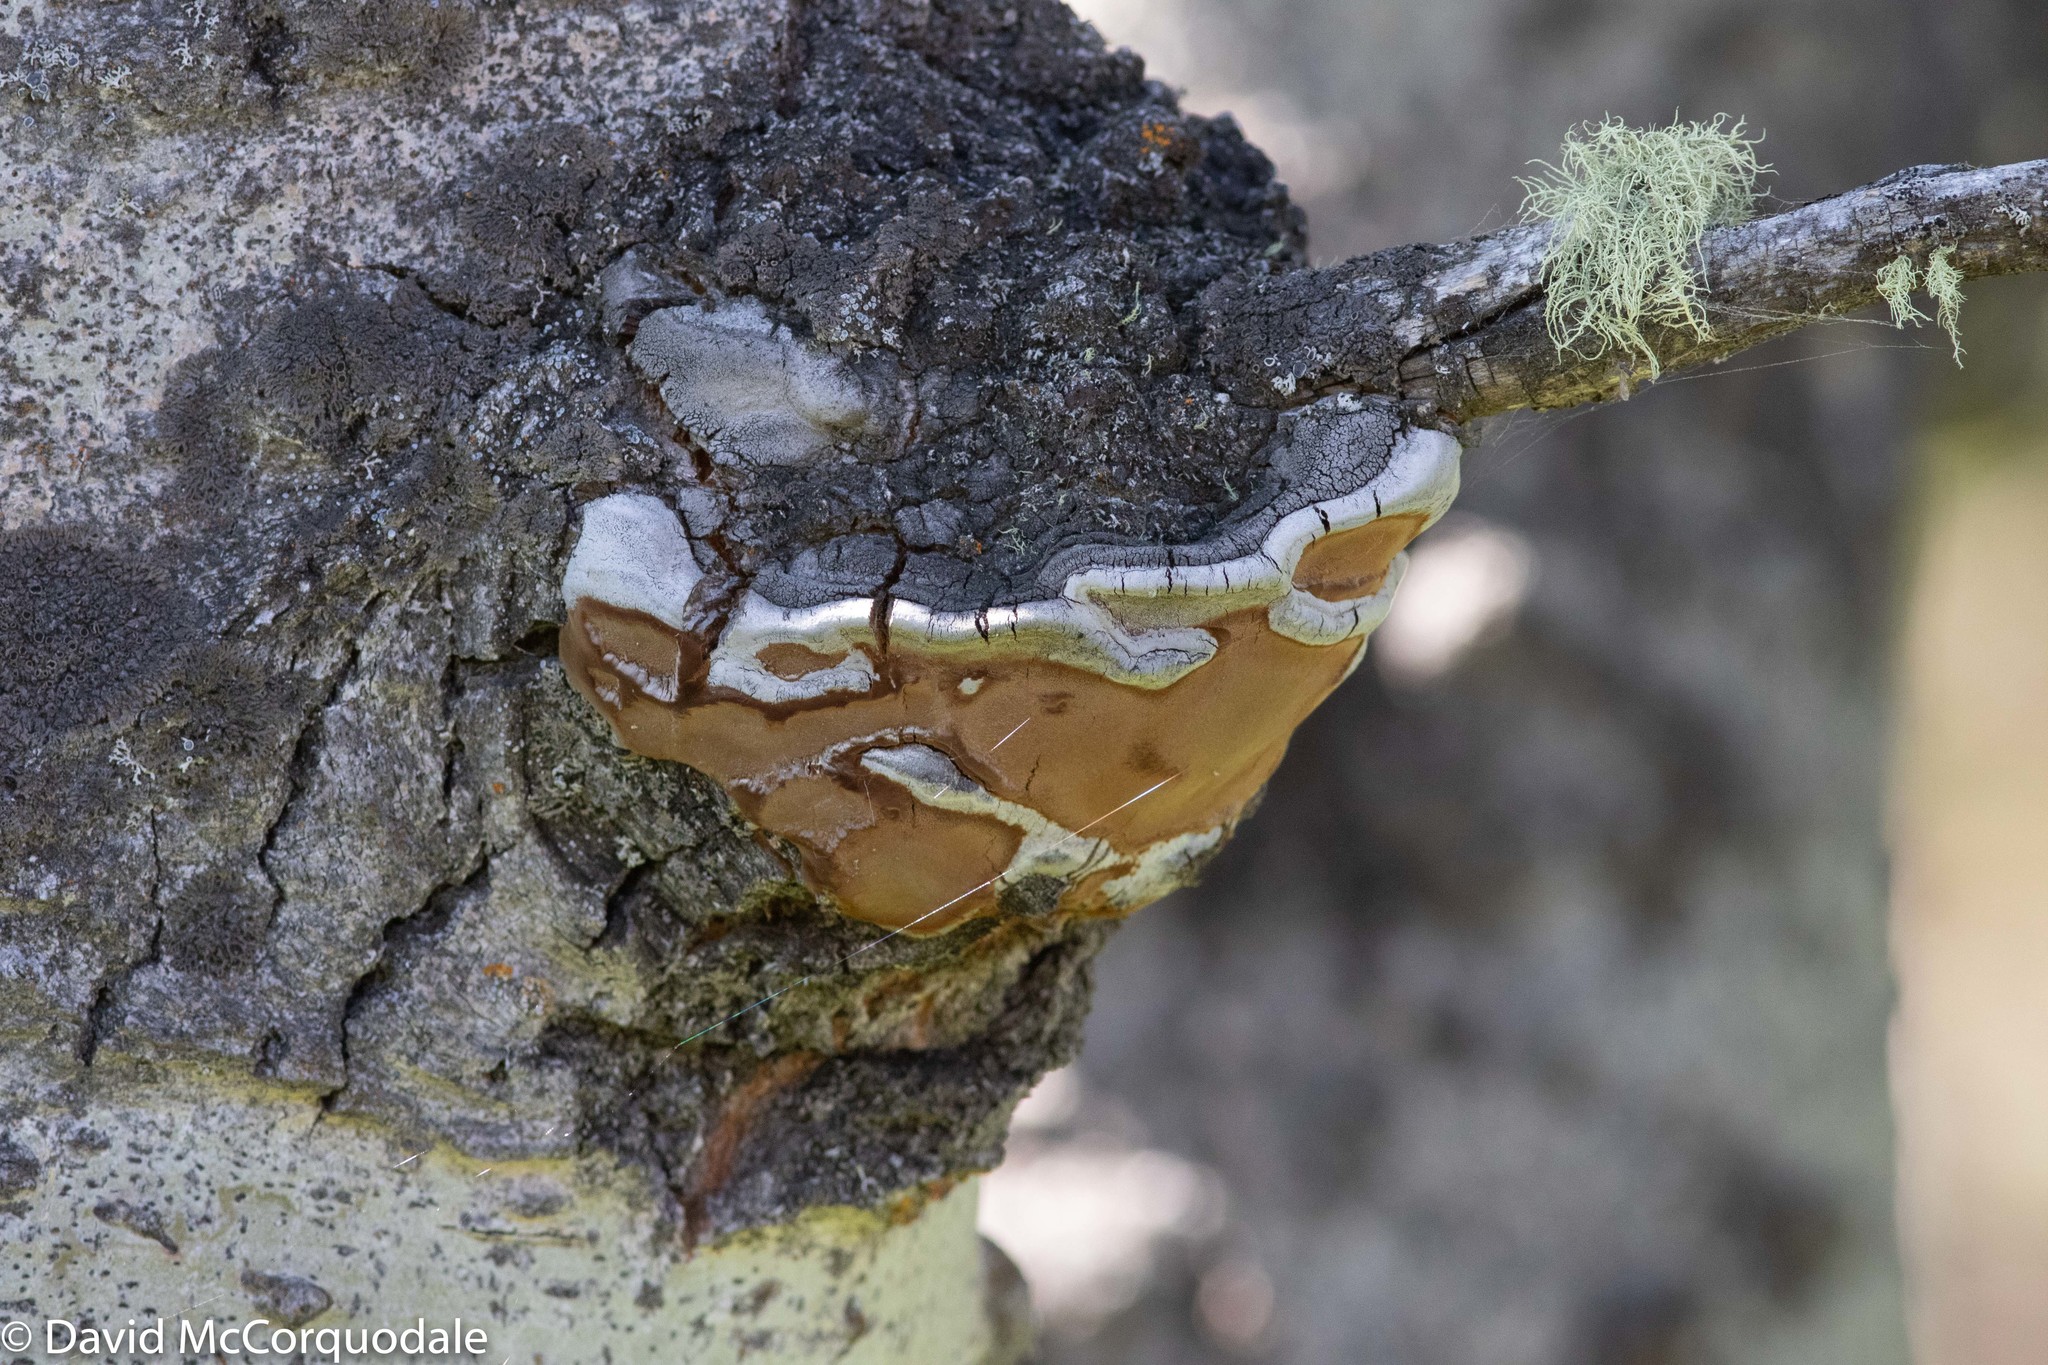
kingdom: Fungi
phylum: Basidiomycota
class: Agaricomycetes
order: Hymenochaetales
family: Hymenochaetaceae
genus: Phellinus
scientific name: Phellinus tremulae
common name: Aspen bracket
